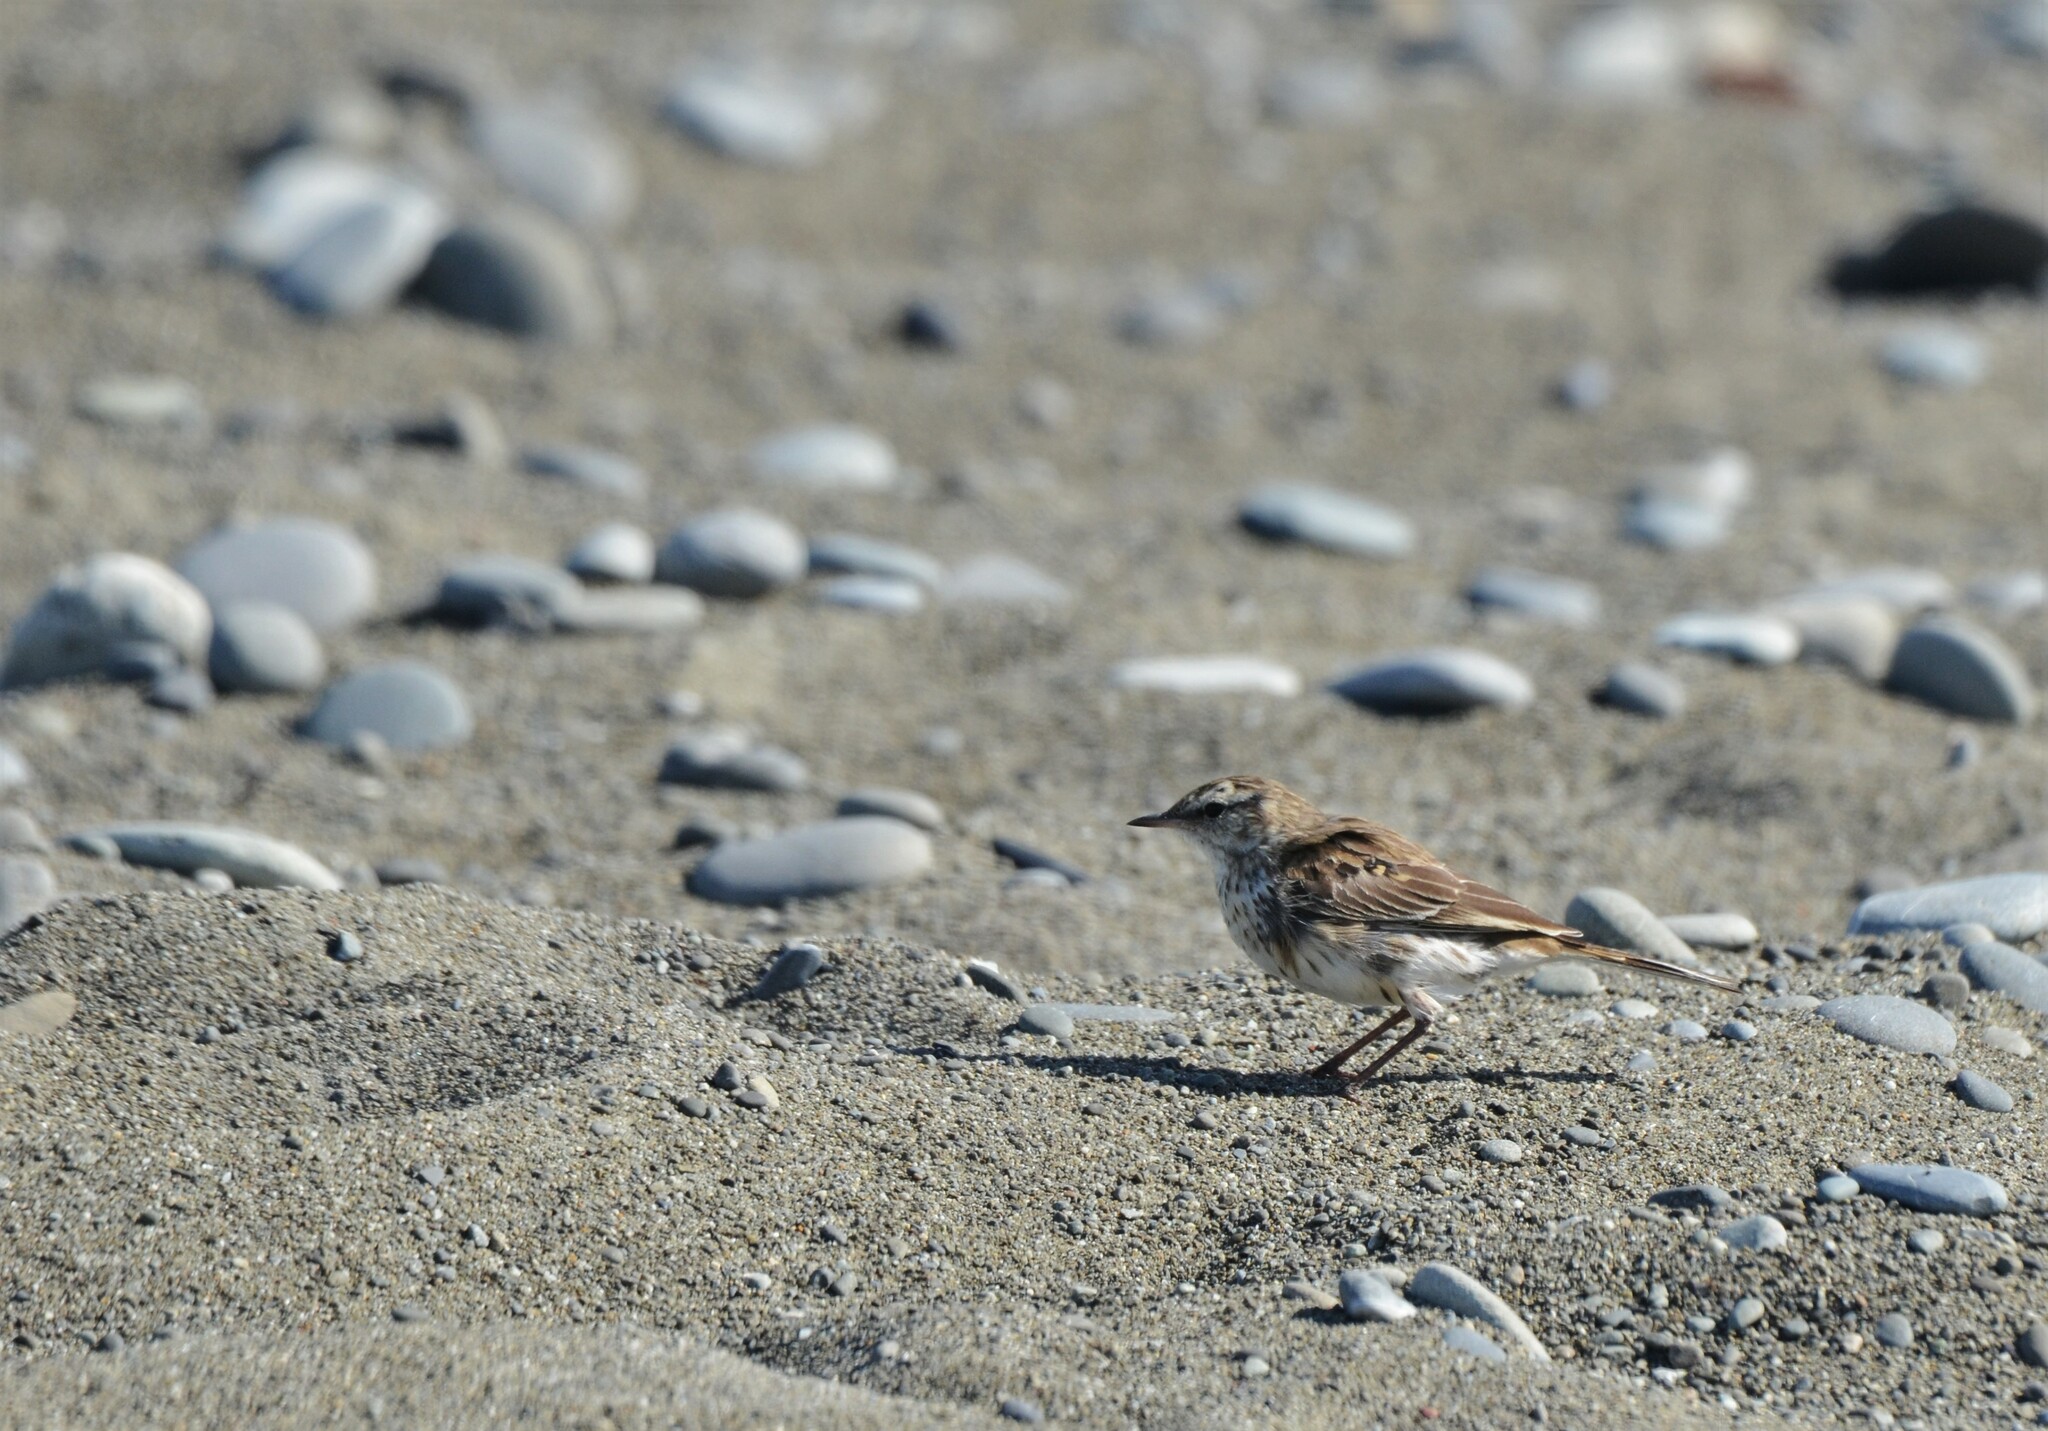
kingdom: Animalia
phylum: Chordata
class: Aves
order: Passeriformes
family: Motacillidae
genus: Anthus
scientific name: Anthus novaeseelandiae
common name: New zealand pipit
